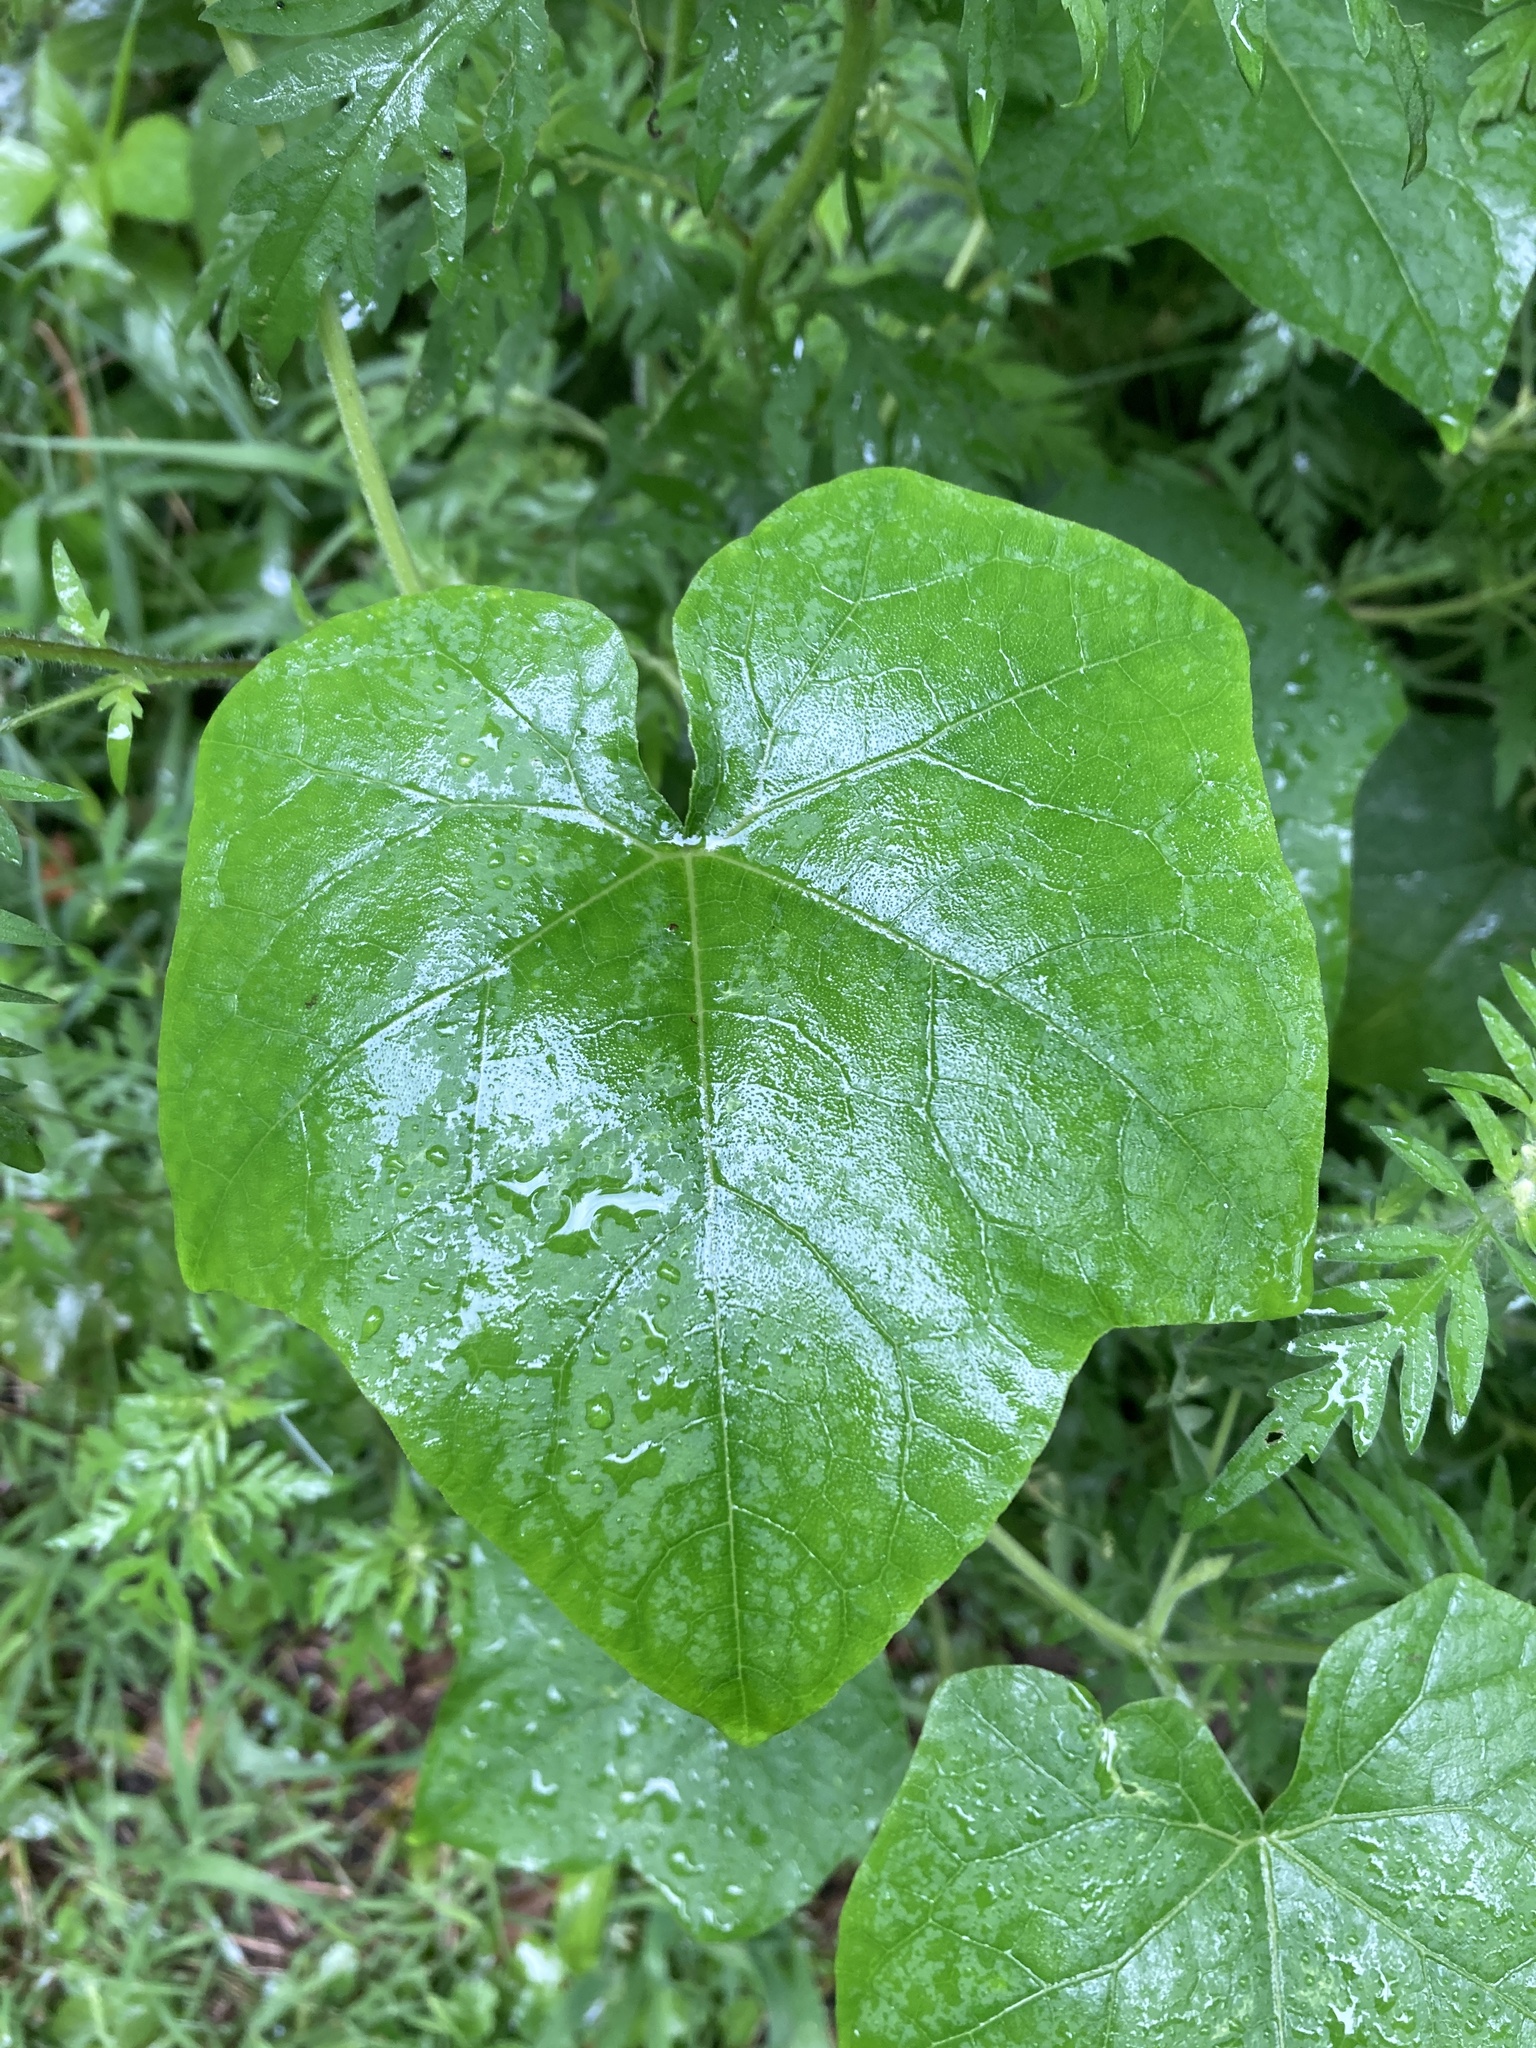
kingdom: Plantae
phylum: Tracheophyta
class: Magnoliopsida
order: Cucurbitales
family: Cucurbitaceae
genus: Sicyos
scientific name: Sicyos angulatus
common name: Angled burr cucumber
